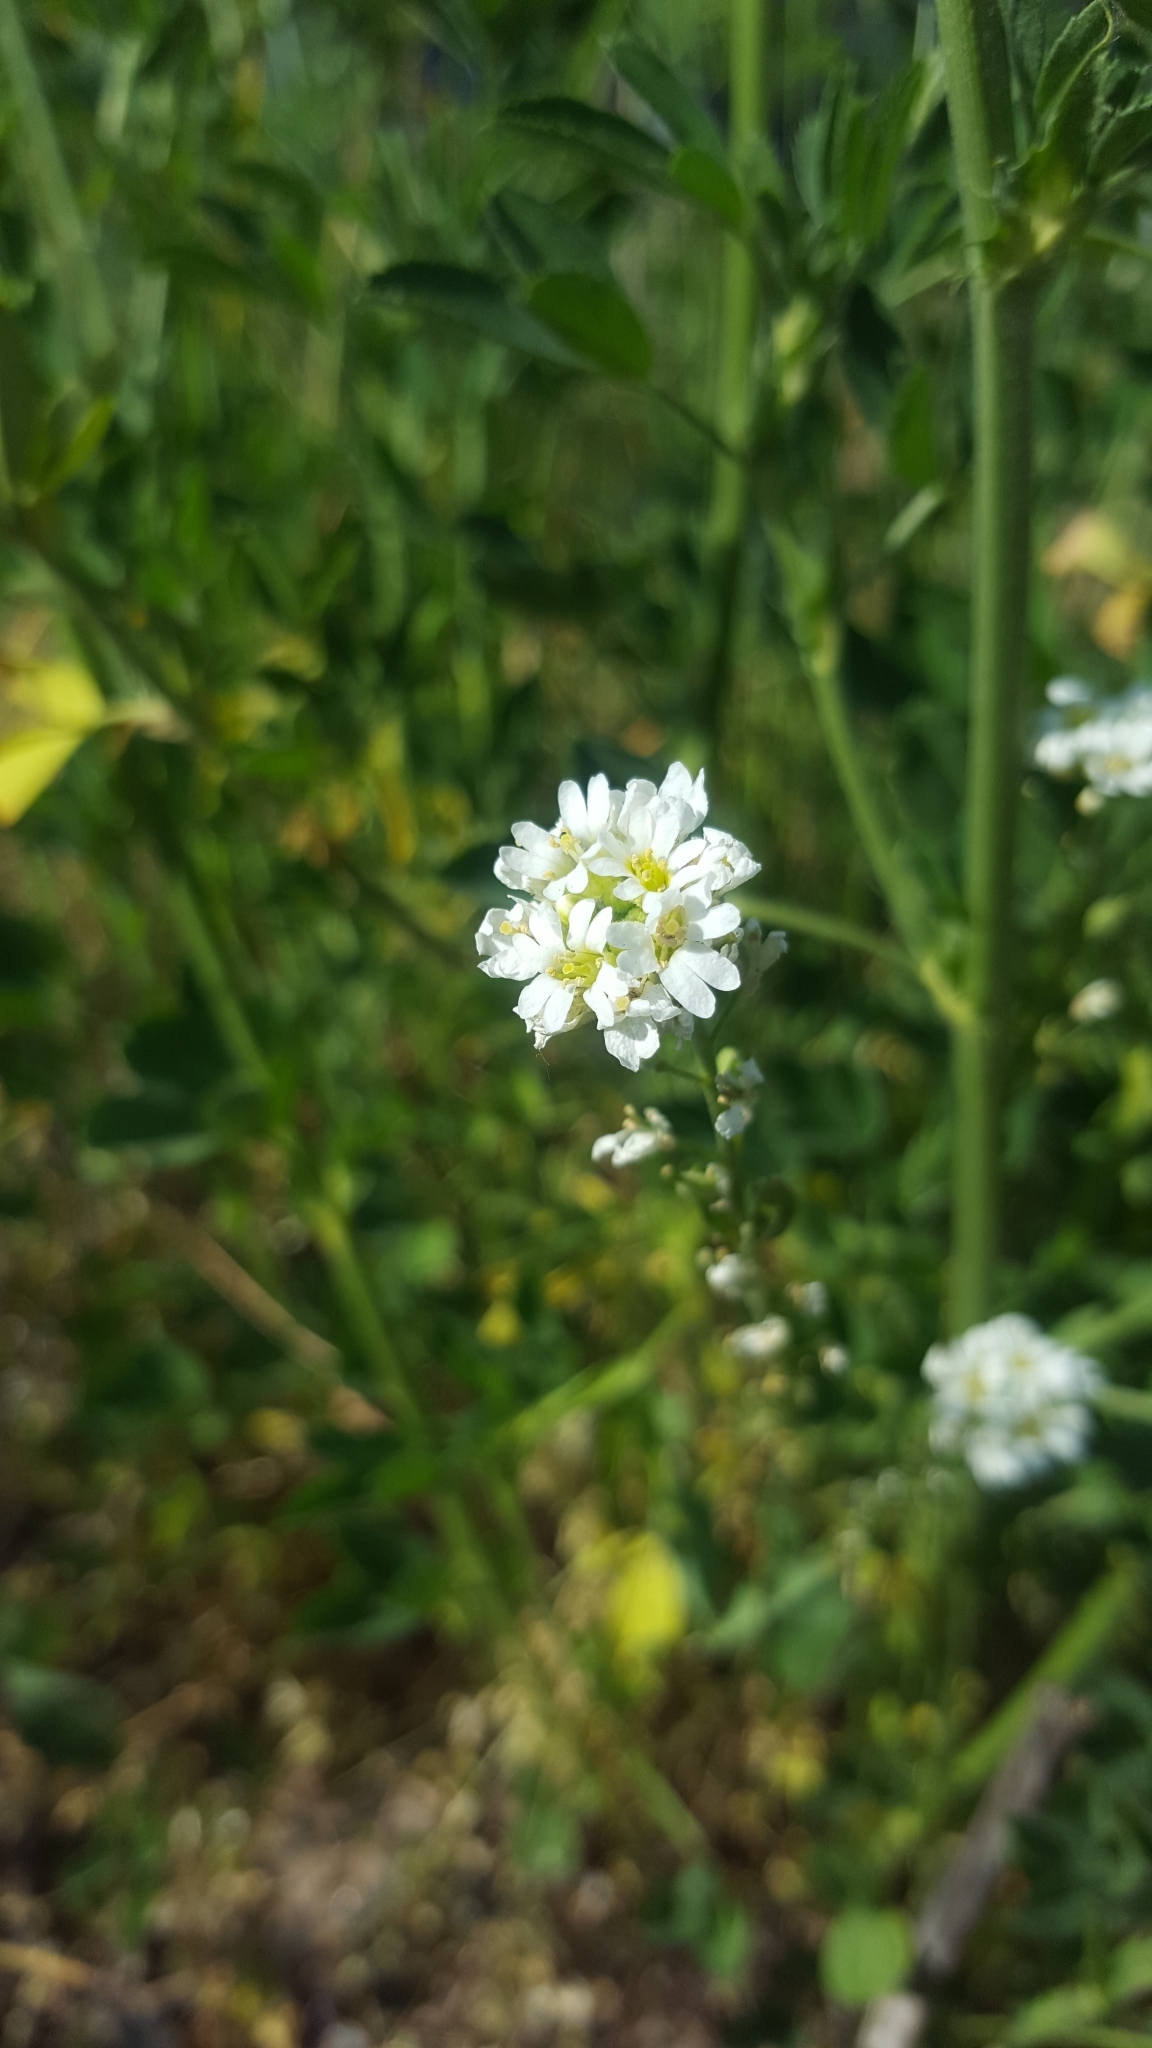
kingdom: Plantae
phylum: Tracheophyta
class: Magnoliopsida
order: Brassicales
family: Brassicaceae
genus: Berteroa
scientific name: Berteroa incana
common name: Hoary alison
